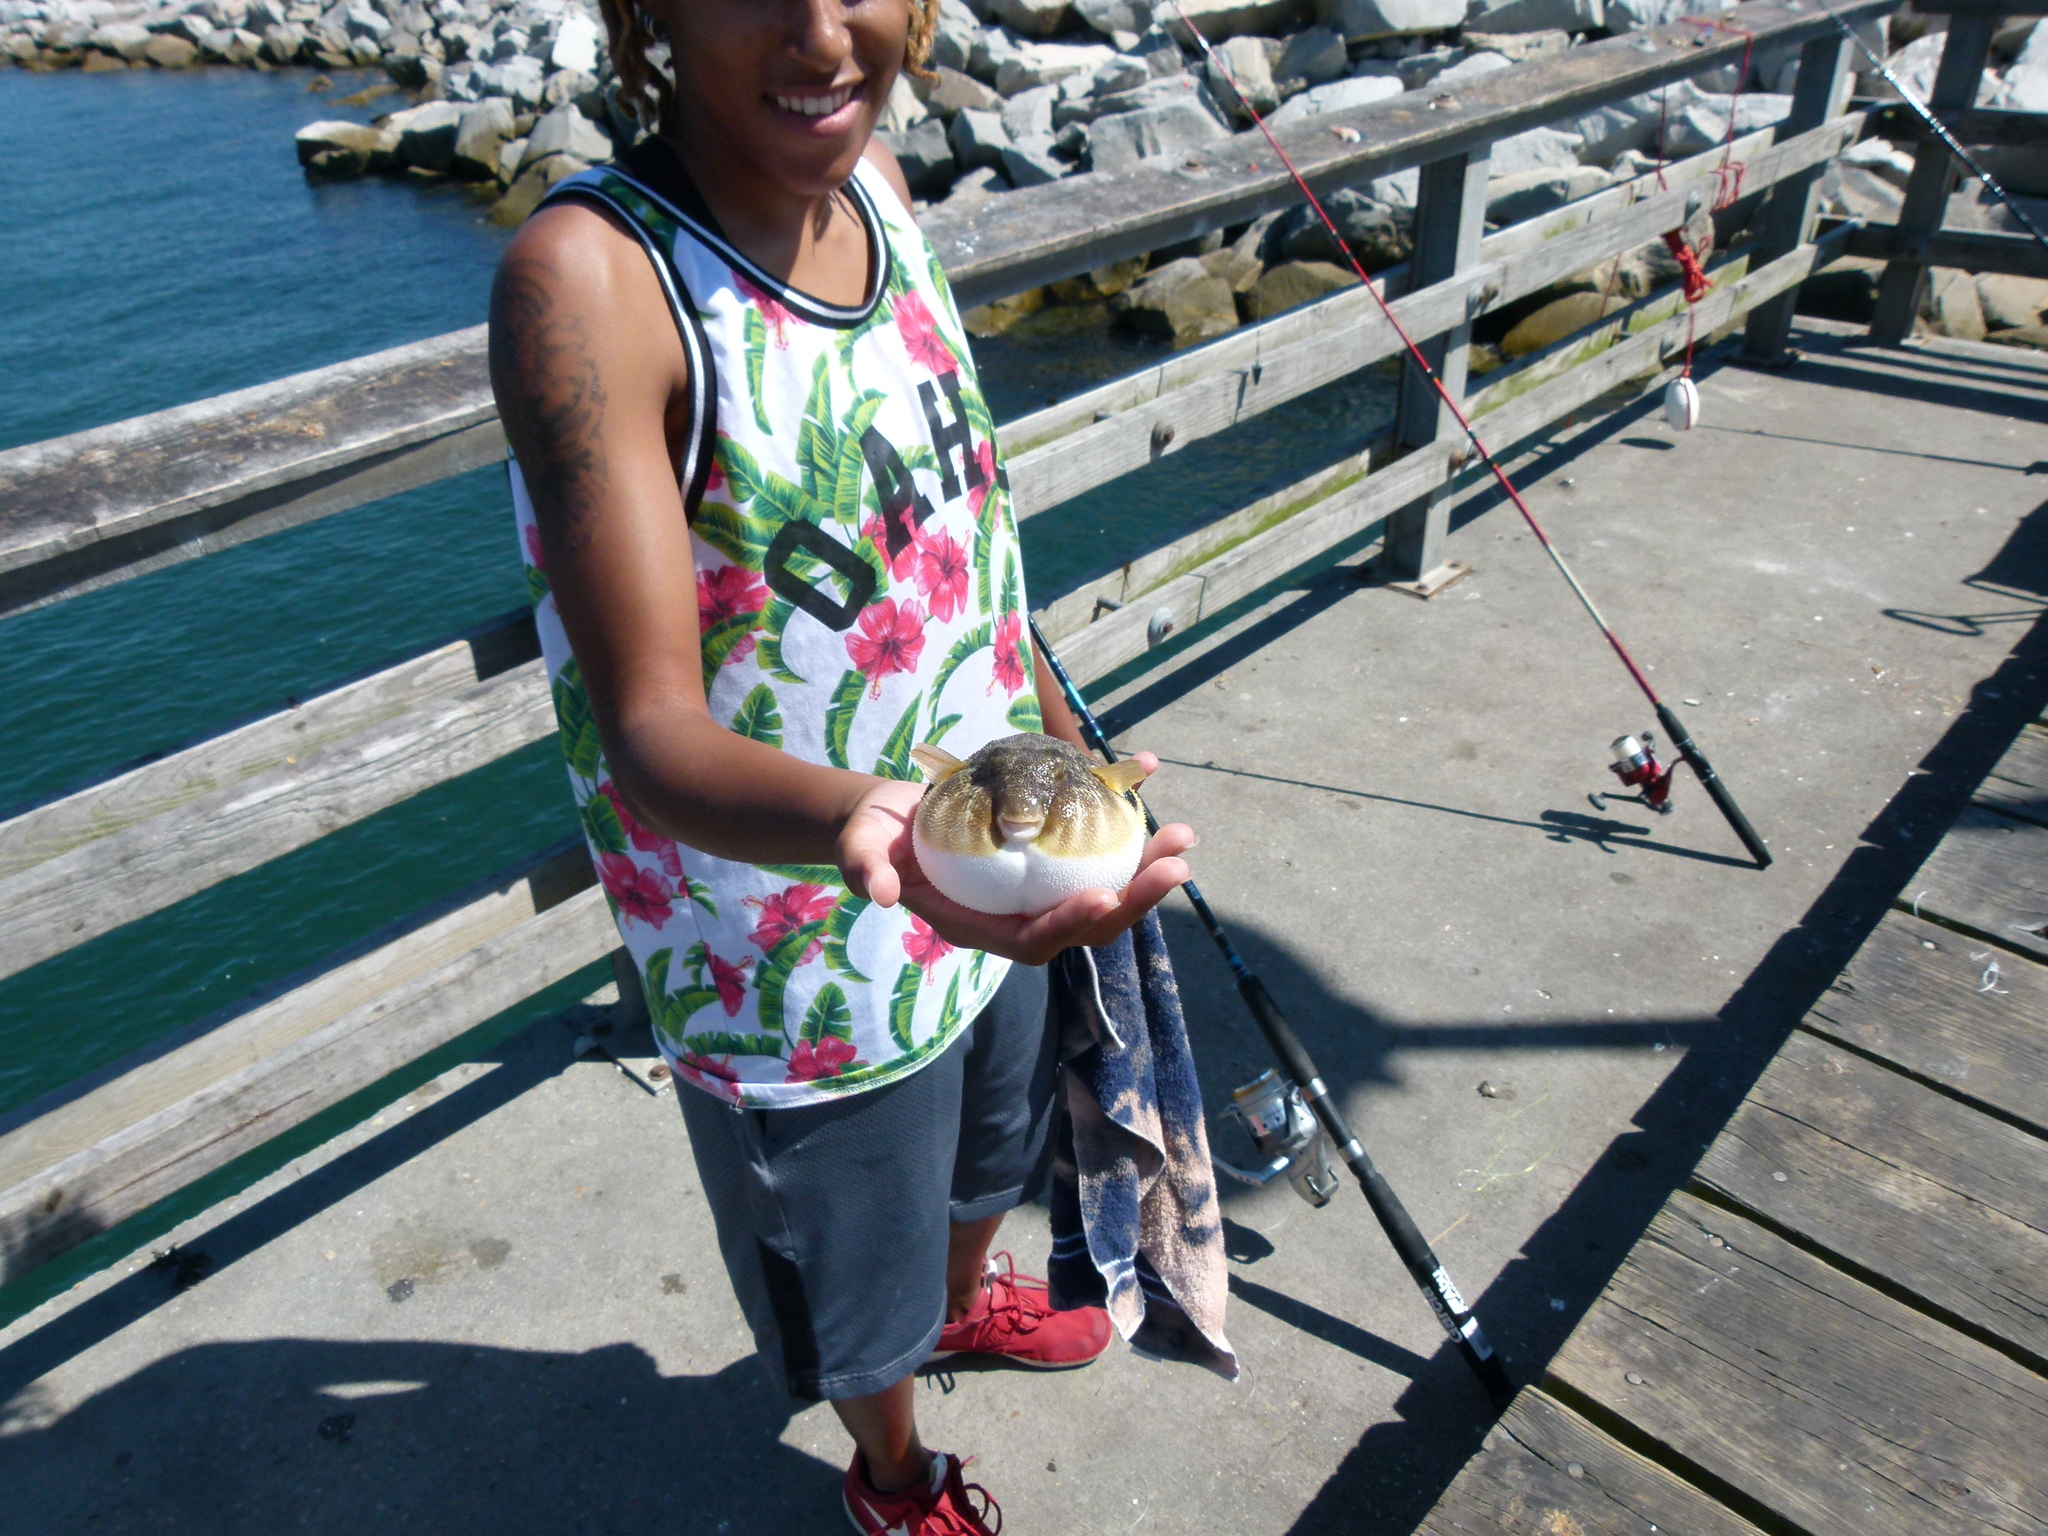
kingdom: Animalia
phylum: Chordata
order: Tetraodontiformes
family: Tetraodontidae
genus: Sphoeroides
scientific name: Sphoeroides maculatus
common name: Northern puffer
